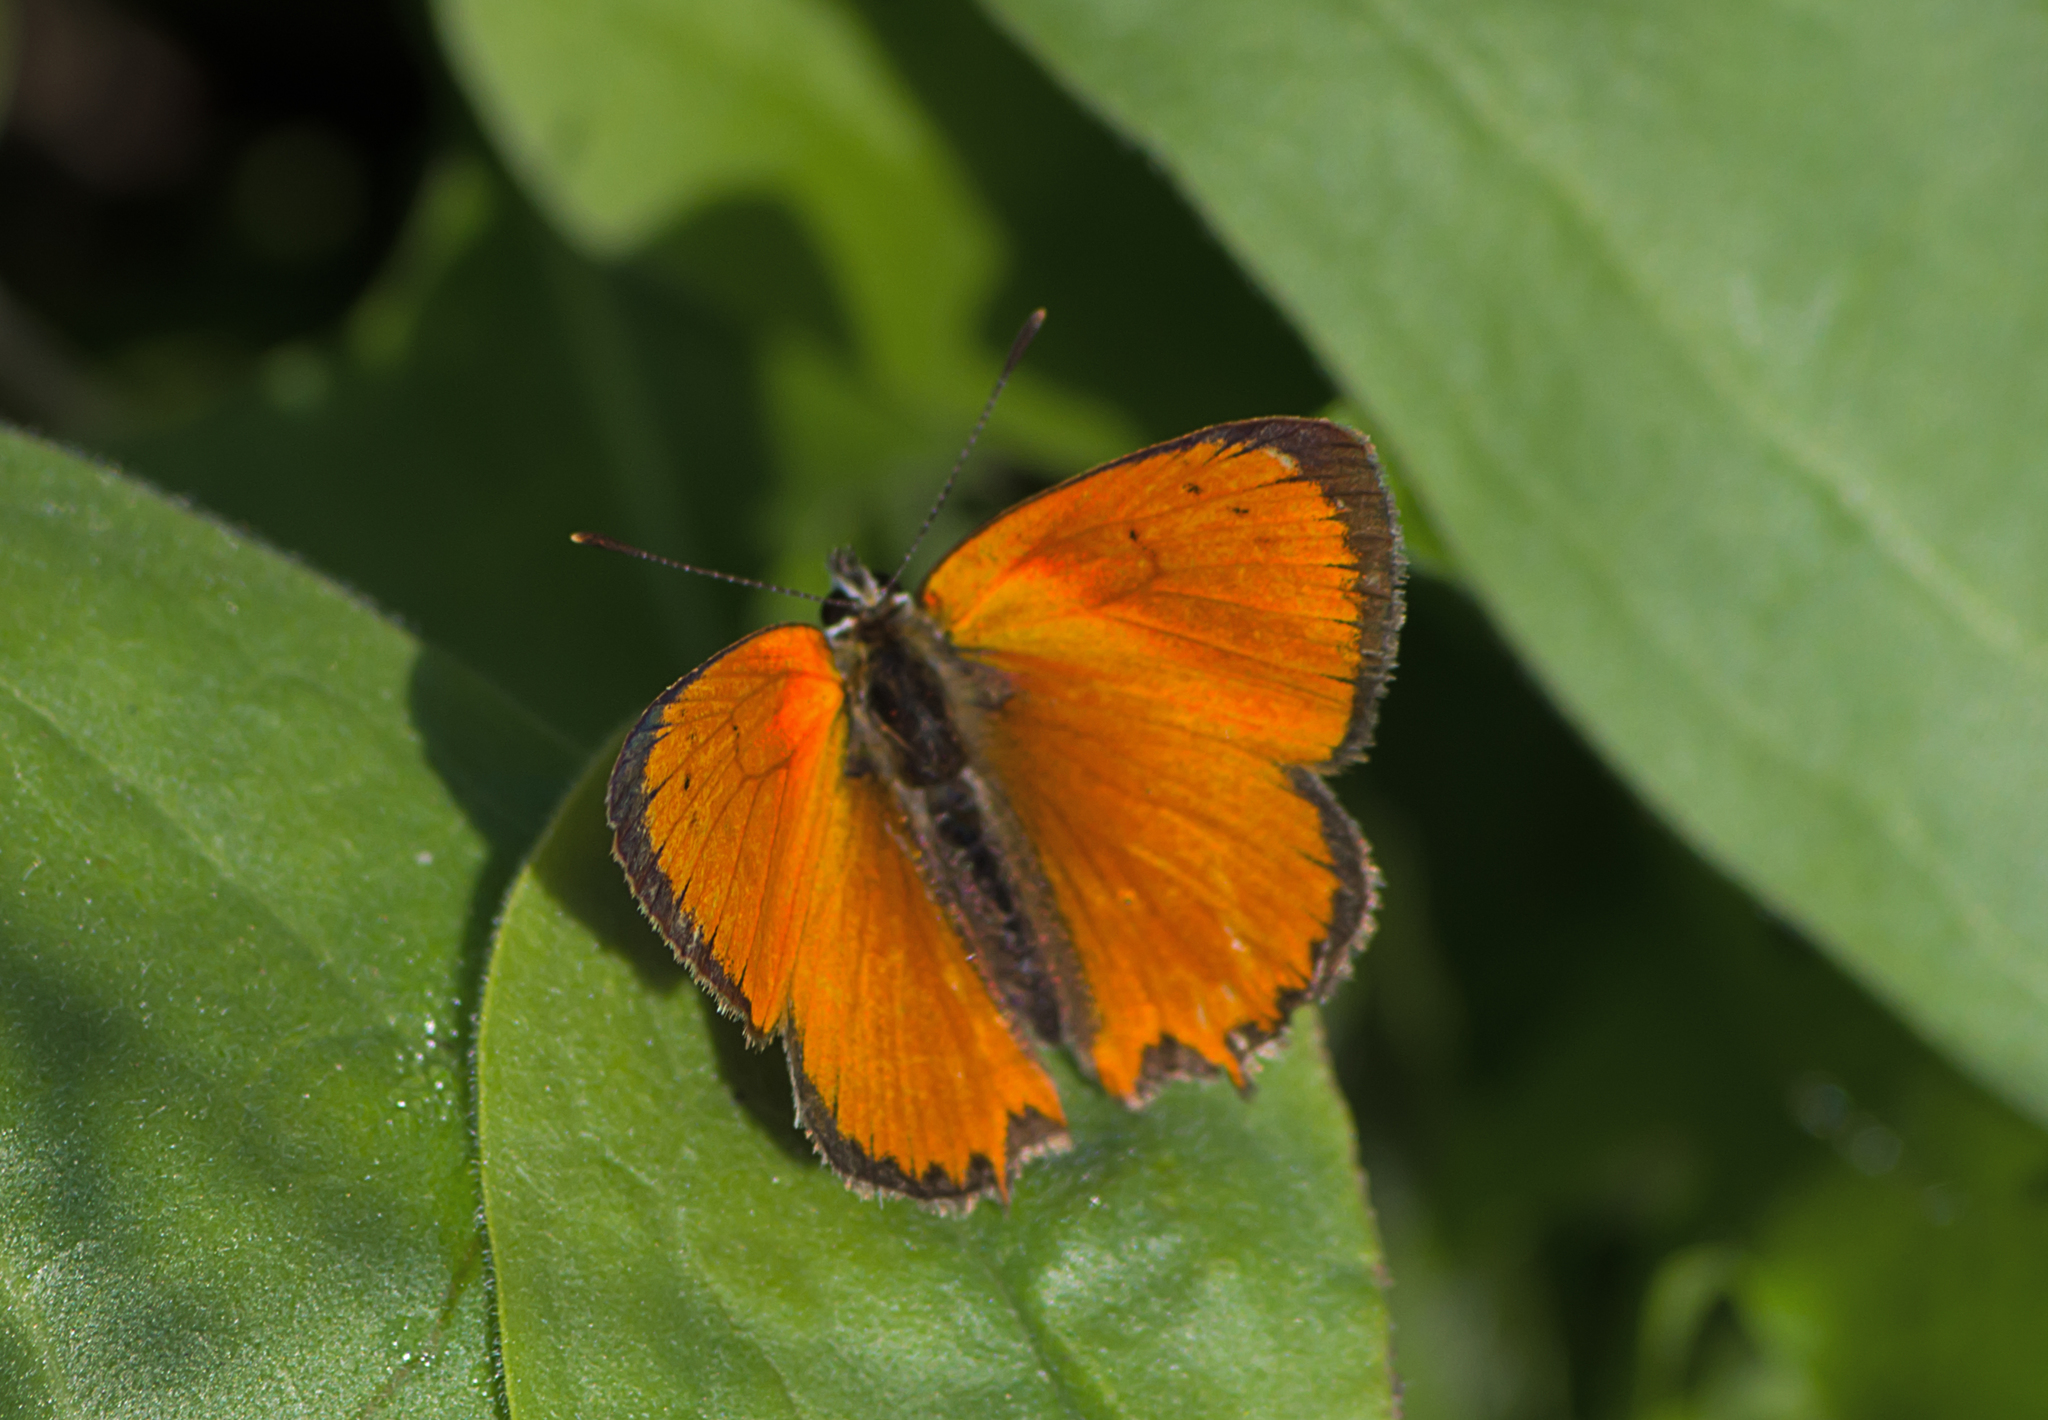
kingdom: Animalia
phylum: Arthropoda
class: Insecta
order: Lepidoptera
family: Lycaenidae
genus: Polyommatus
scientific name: Polyommatus ottomanus
